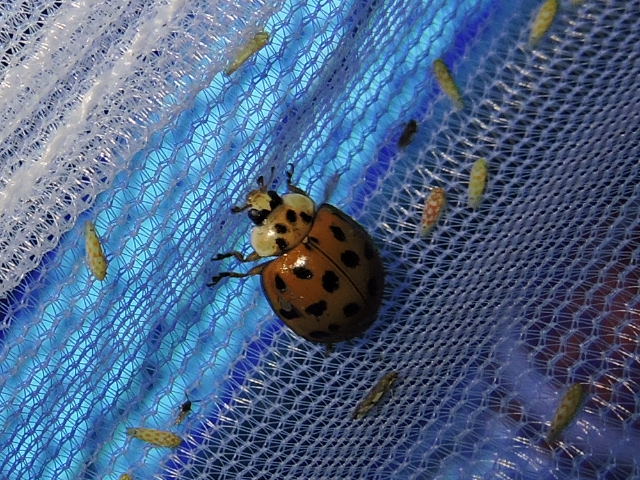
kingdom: Animalia
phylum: Arthropoda
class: Insecta
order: Coleoptera
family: Coccinellidae
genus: Harmonia
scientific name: Harmonia axyridis
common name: Harlequin ladybird
